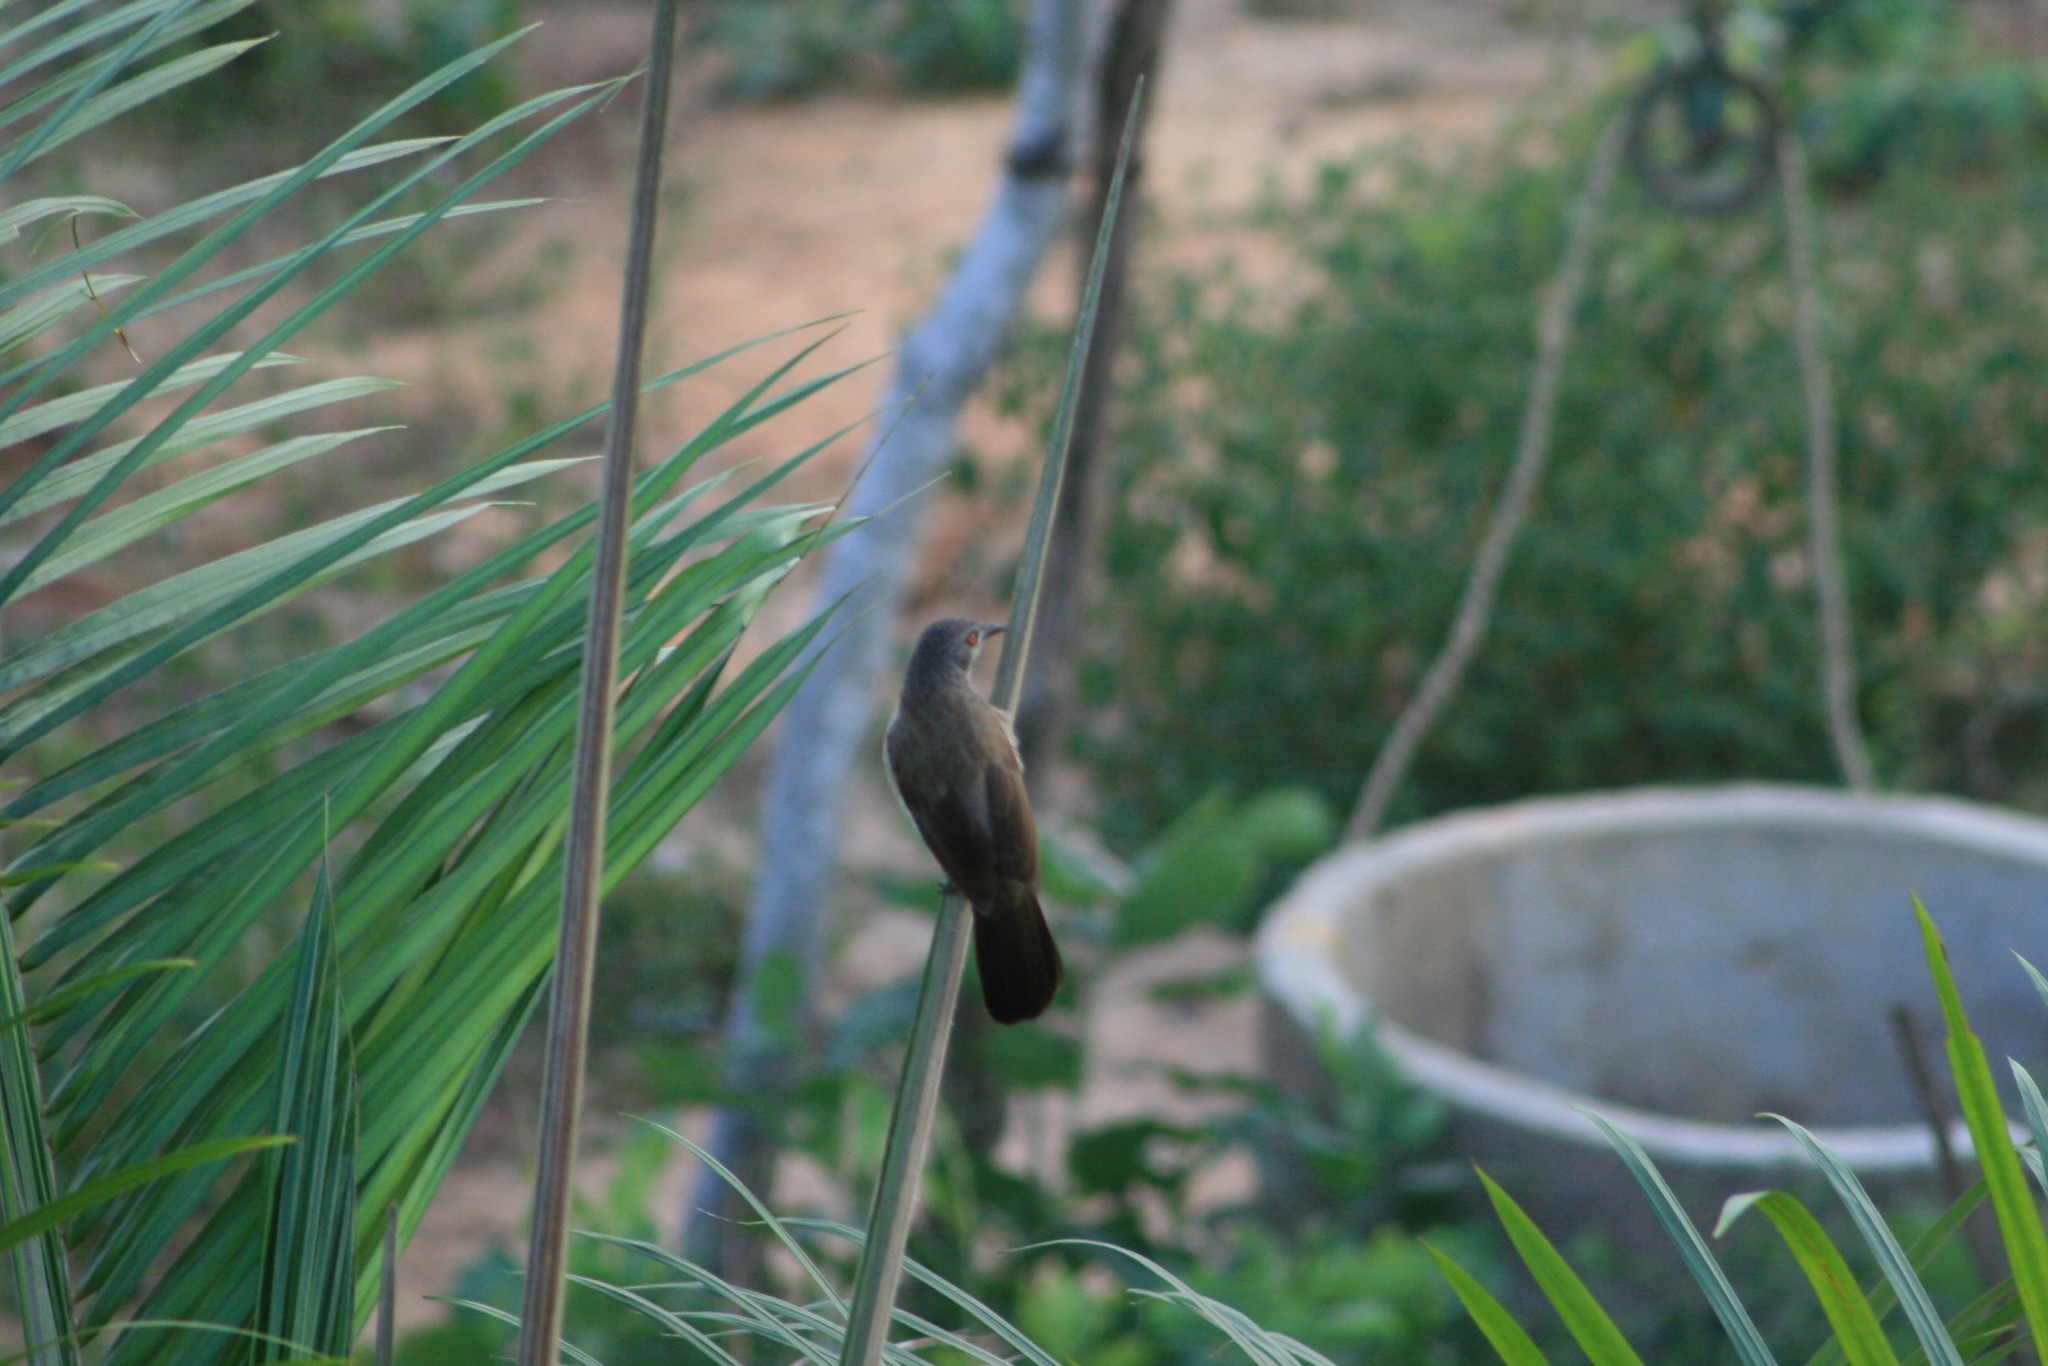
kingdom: Animalia
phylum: Chordata
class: Aves
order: Passeriformes
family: Leiothrichidae
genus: Turdoides
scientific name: Turdoides plebejus
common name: Brown babbler
